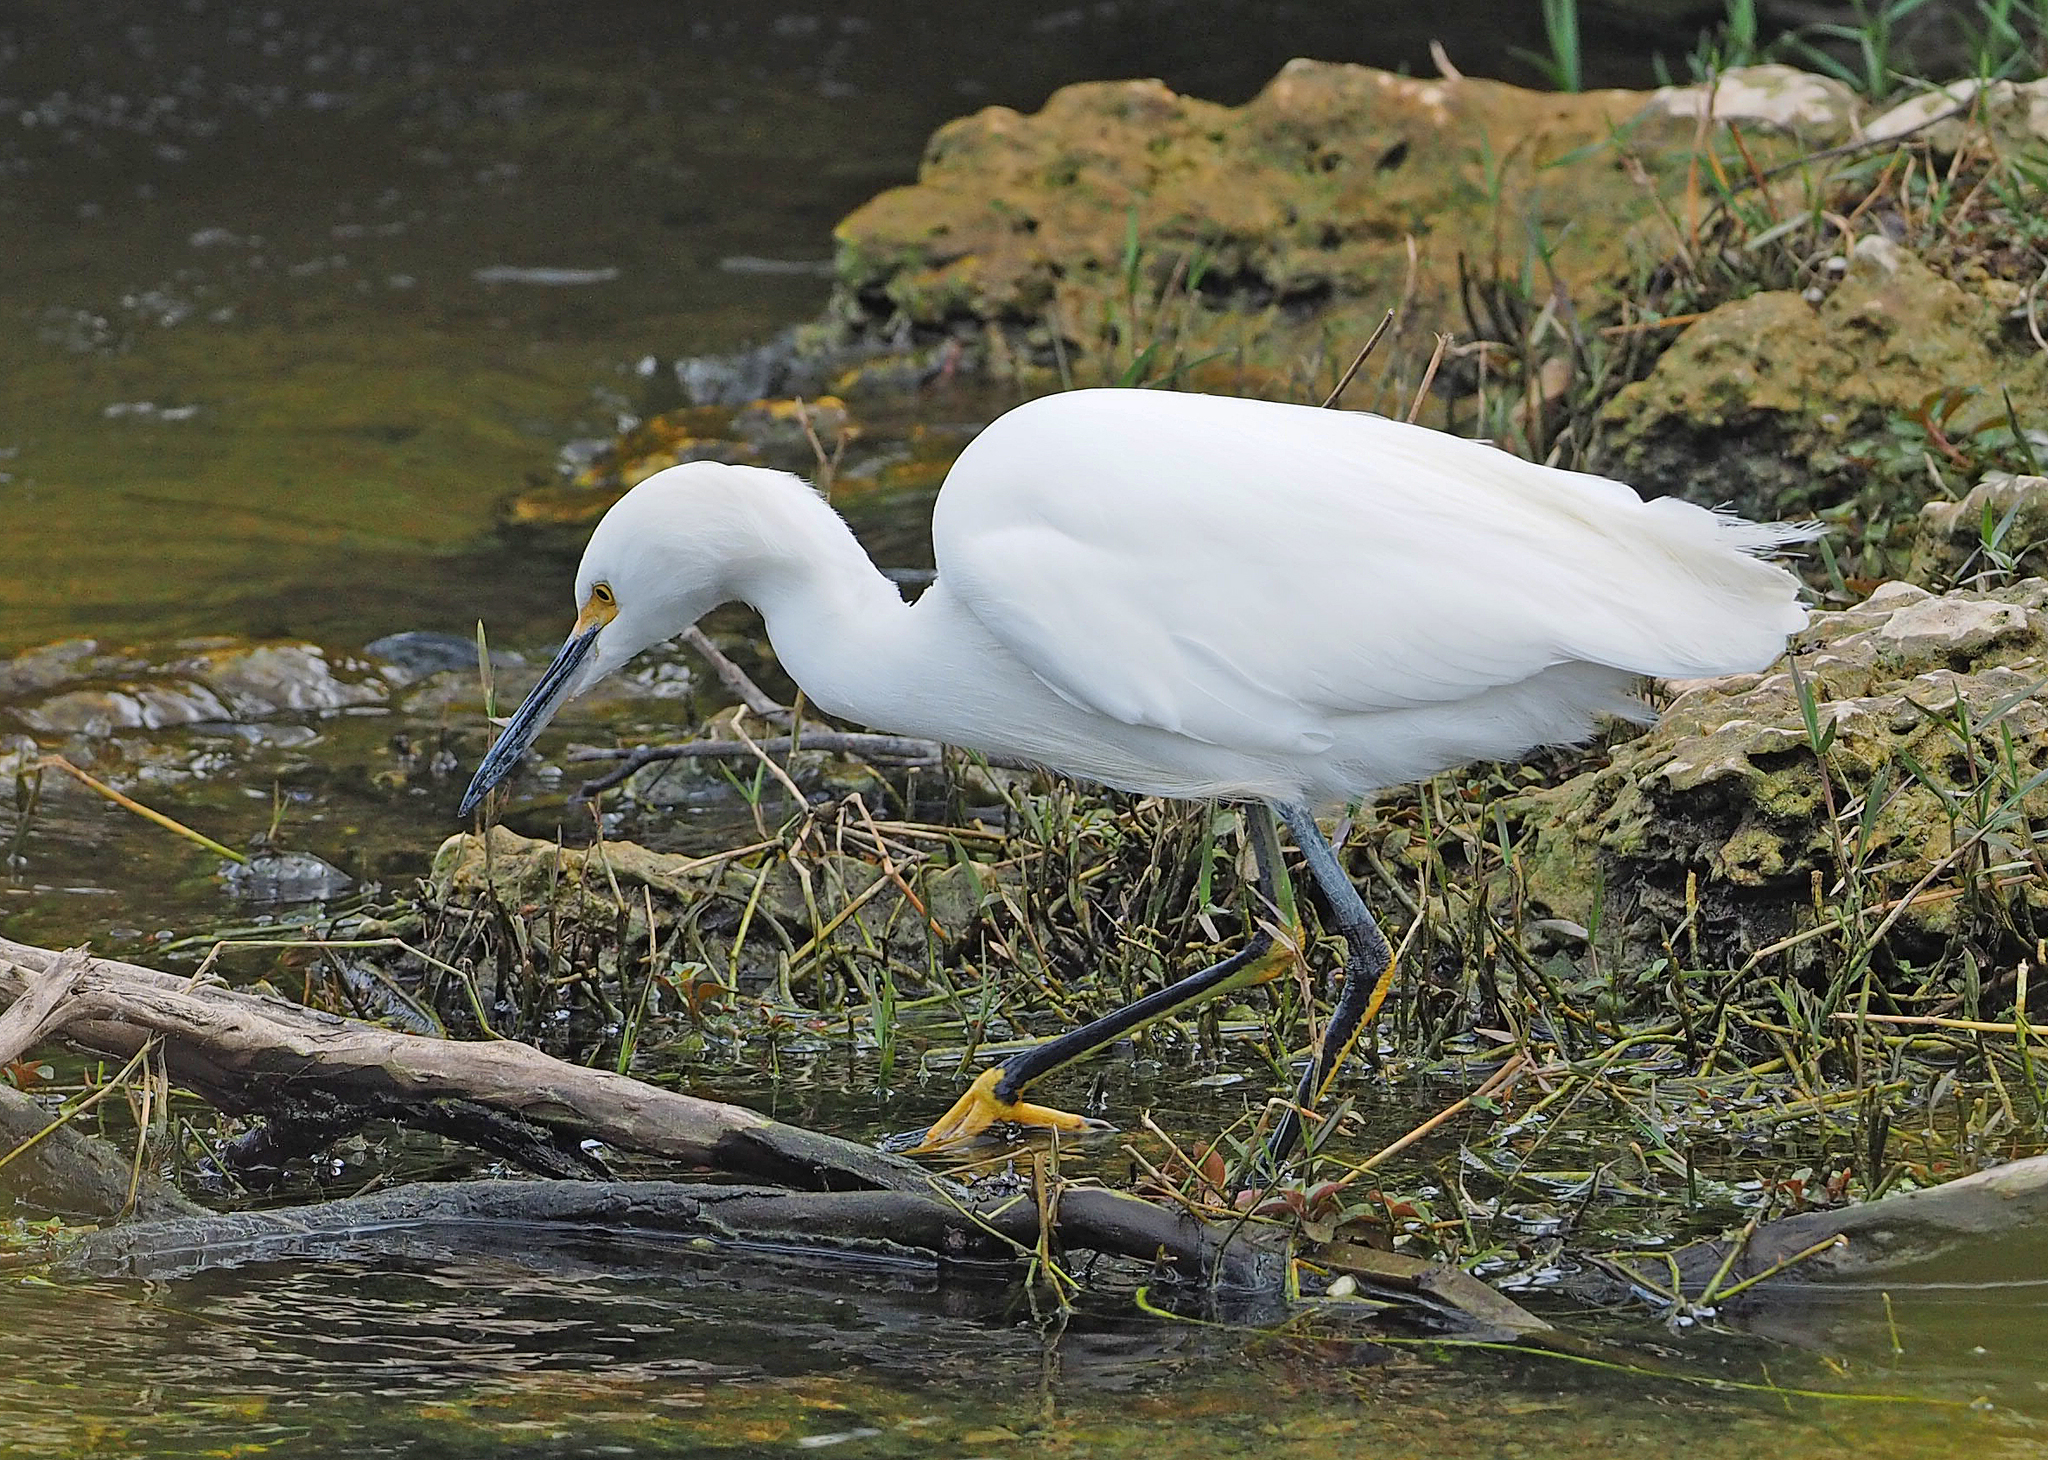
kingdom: Animalia
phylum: Chordata
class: Aves
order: Pelecaniformes
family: Ardeidae
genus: Egretta
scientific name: Egretta thula
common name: Snowy egret
